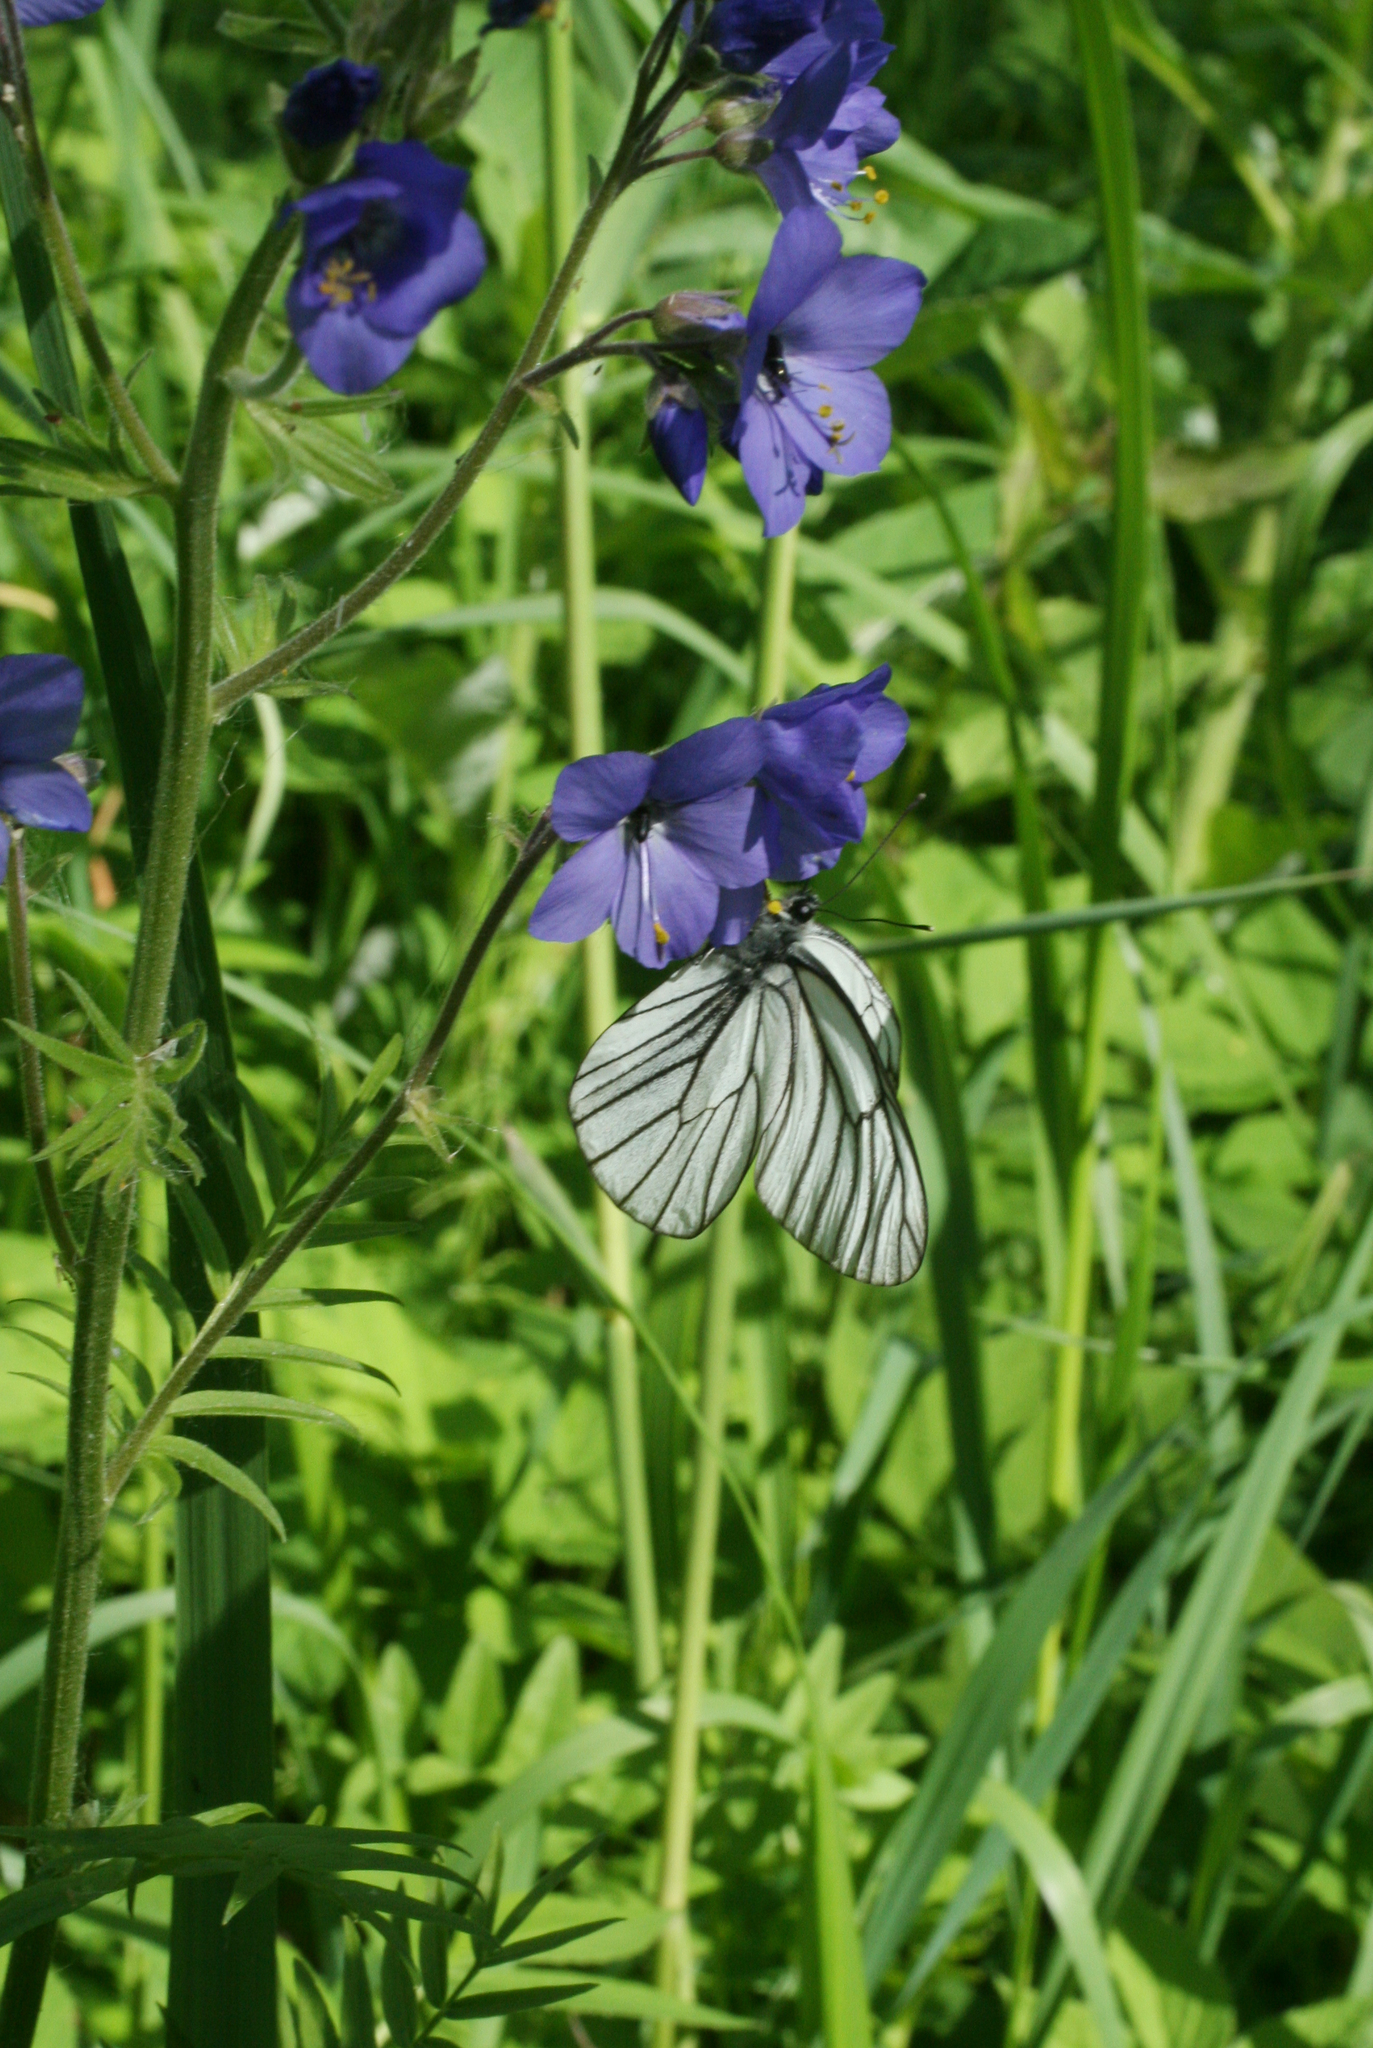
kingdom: Animalia
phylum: Arthropoda
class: Insecta
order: Lepidoptera
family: Pieridae
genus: Aporia
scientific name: Aporia crataegi
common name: Black-veined white
